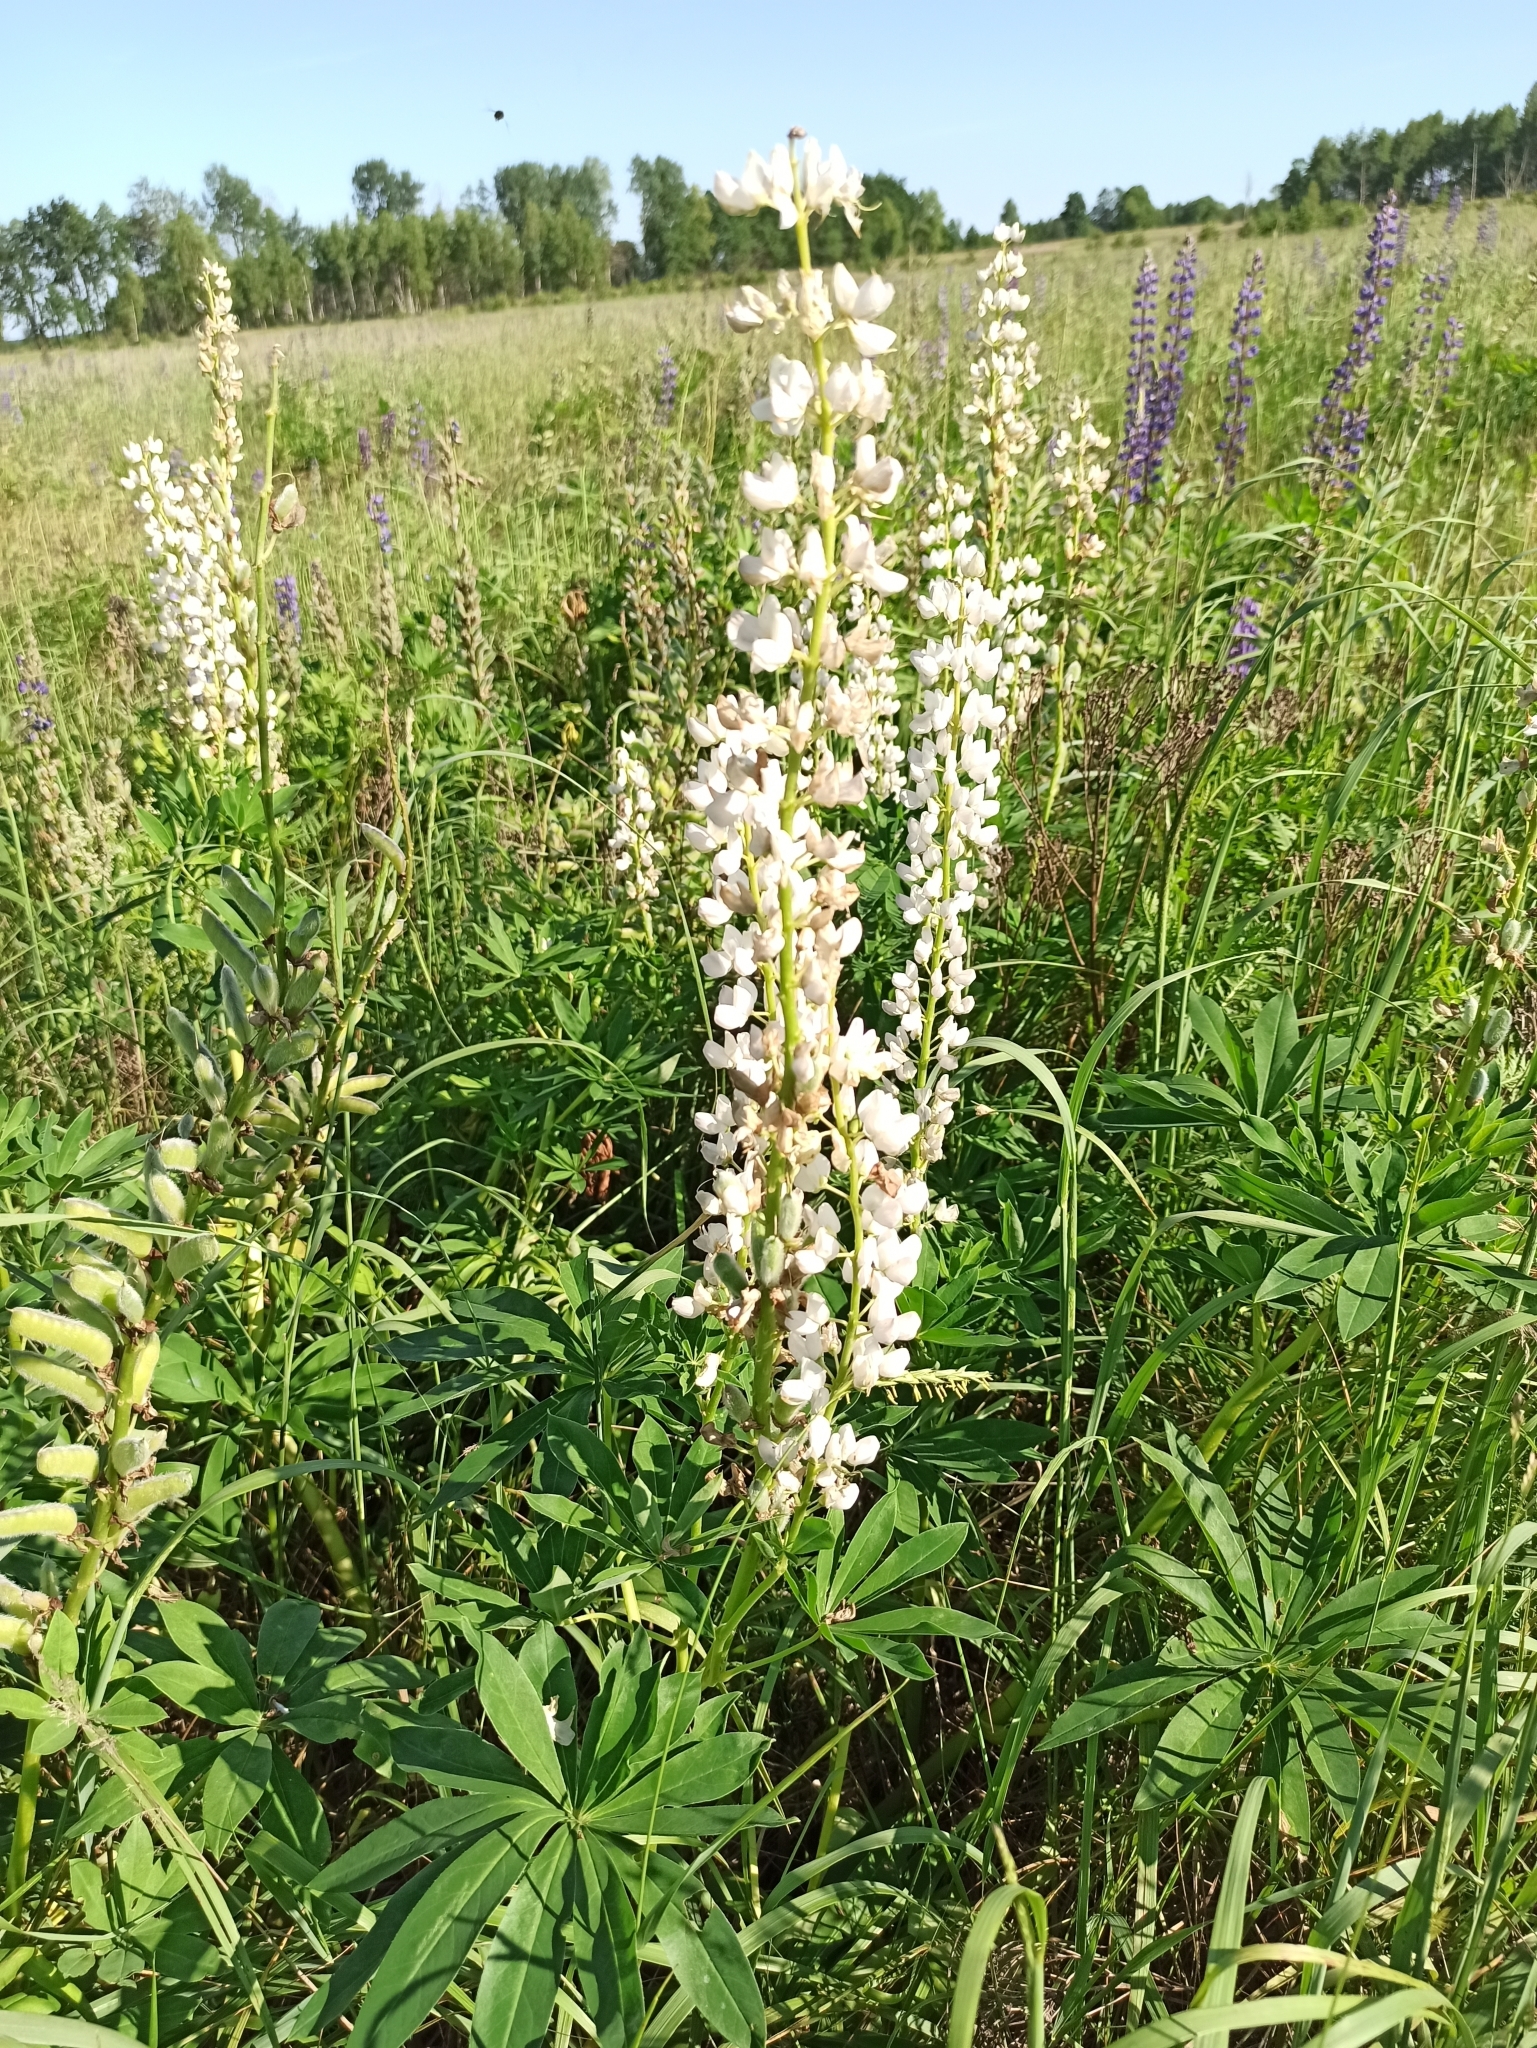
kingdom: Plantae
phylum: Tracheophyta
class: Magnoliopsida
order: Fabales
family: Fabaceae
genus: Lupinus
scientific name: Lupinus polyphyllus
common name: Garden lupin
